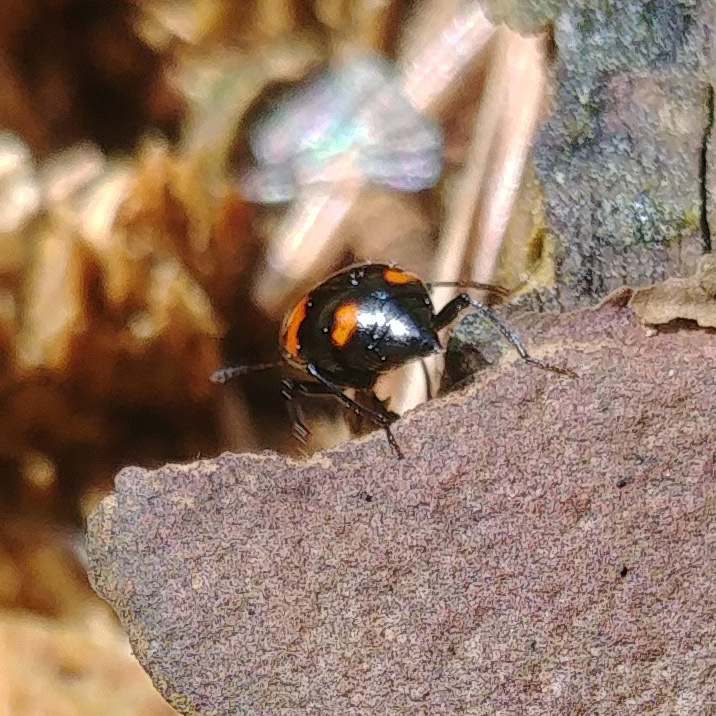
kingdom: Animalia
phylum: Arthropoda
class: Insecta
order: Coleoptera
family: Staphylinidae
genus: Scaphidium
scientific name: Scaphidium quadrimaculatum
